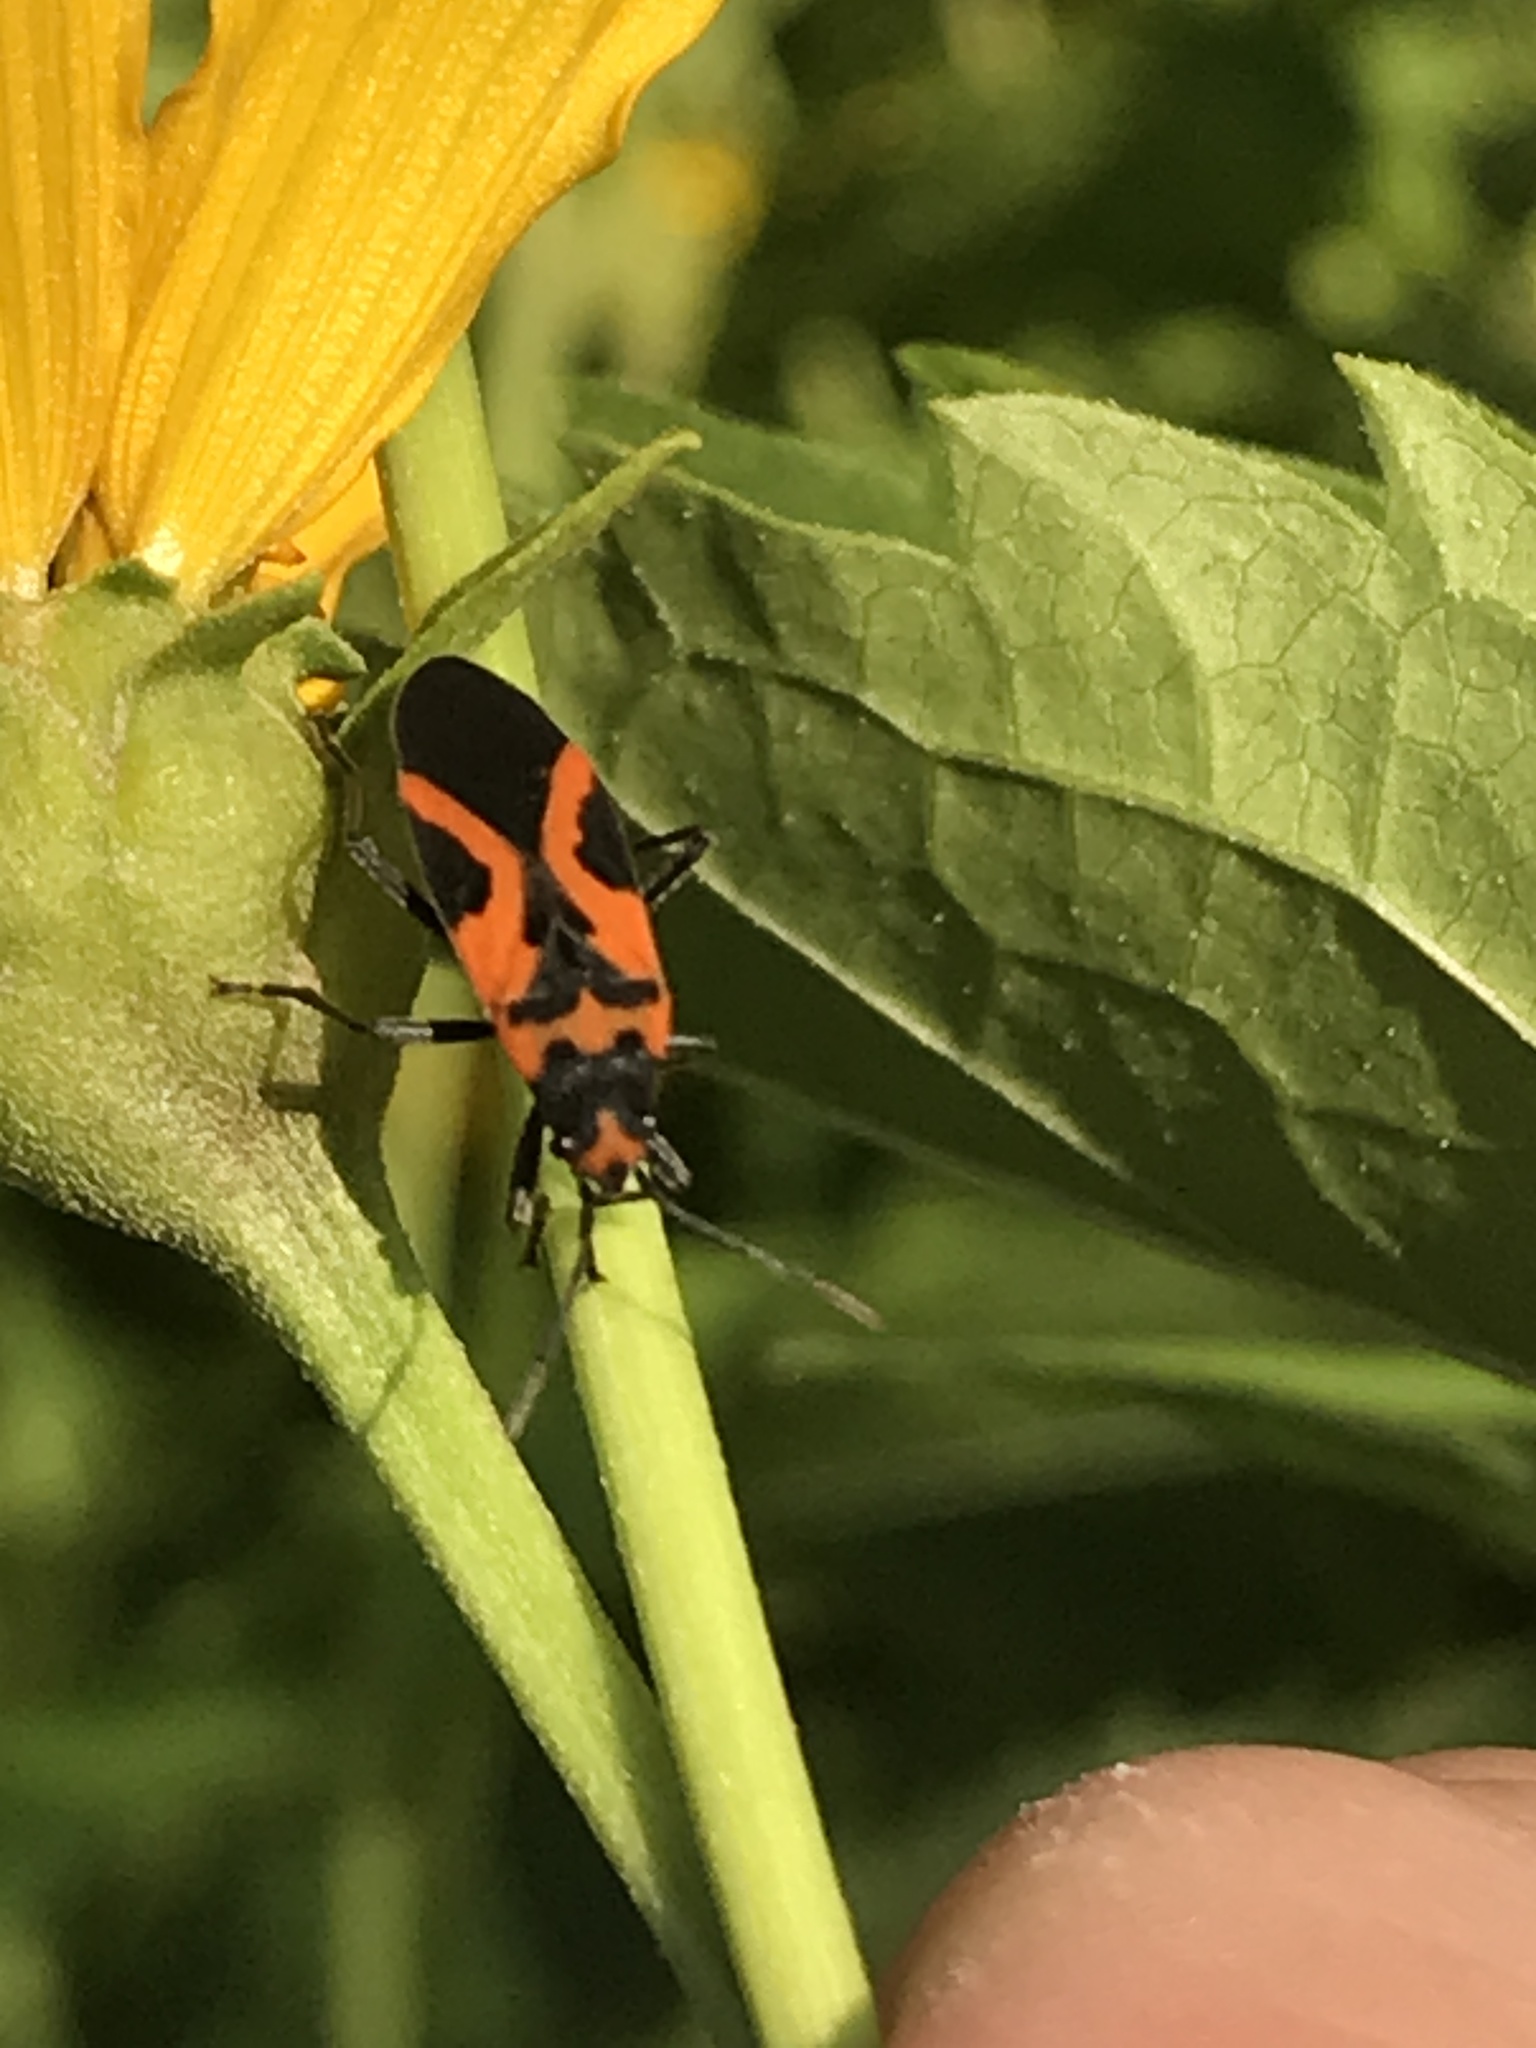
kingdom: Animalia
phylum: Arthropoda
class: Insecta
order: Hemiptera
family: Lygaeidae
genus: Lygaeus
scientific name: Lygaeus turcicus
